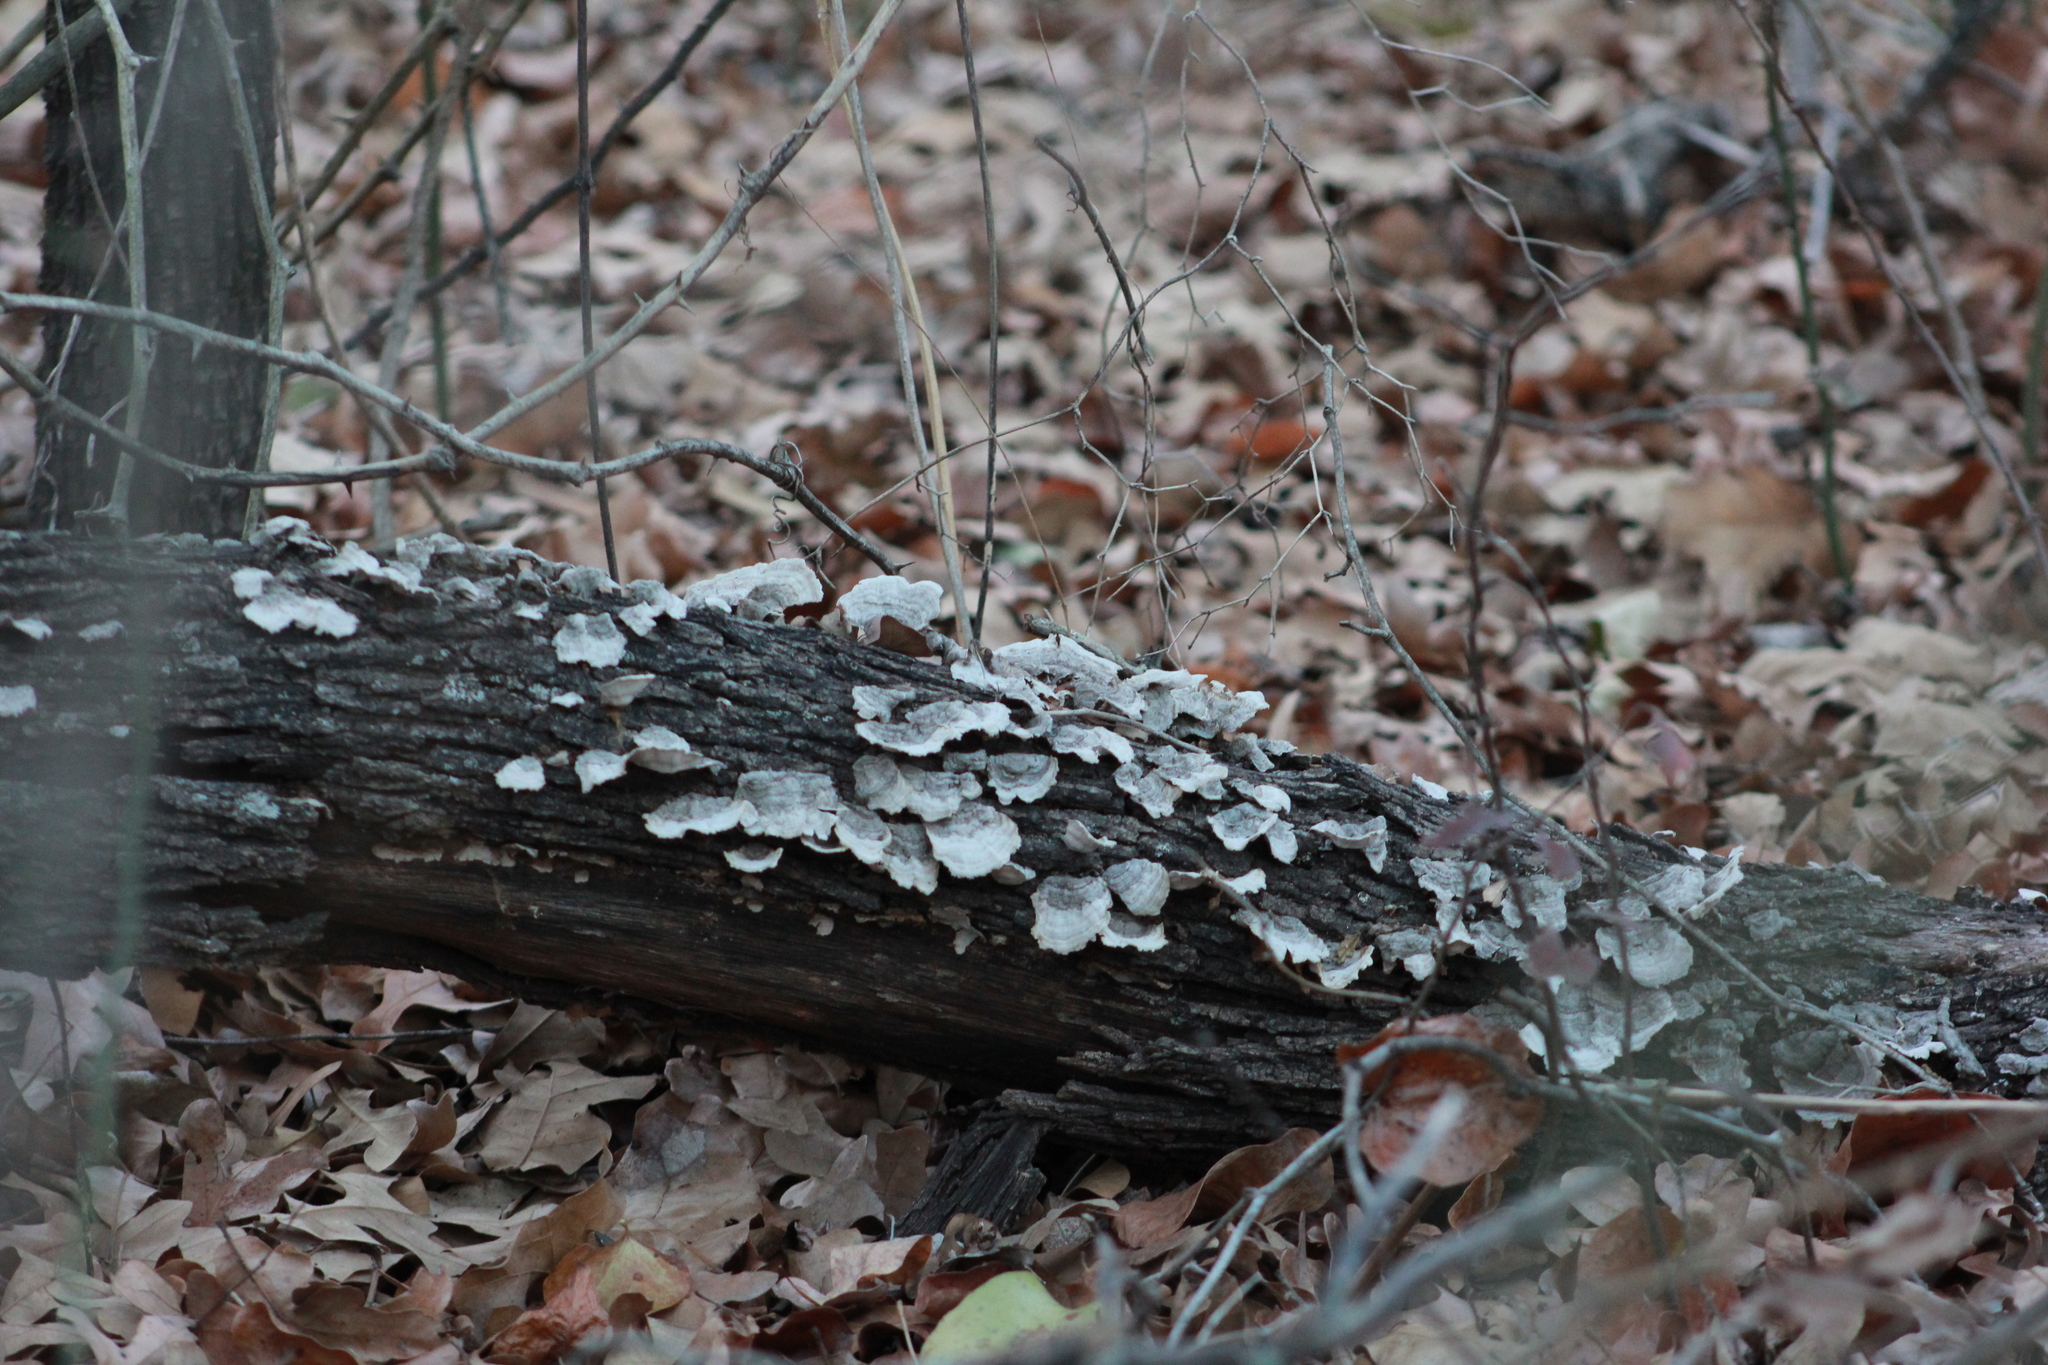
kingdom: Fungi
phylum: Basidiomycota
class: Agaricomycetes
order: Russulales
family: Stereaceae
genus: Stereum
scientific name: Stereum ostrea
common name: False turkeytail
